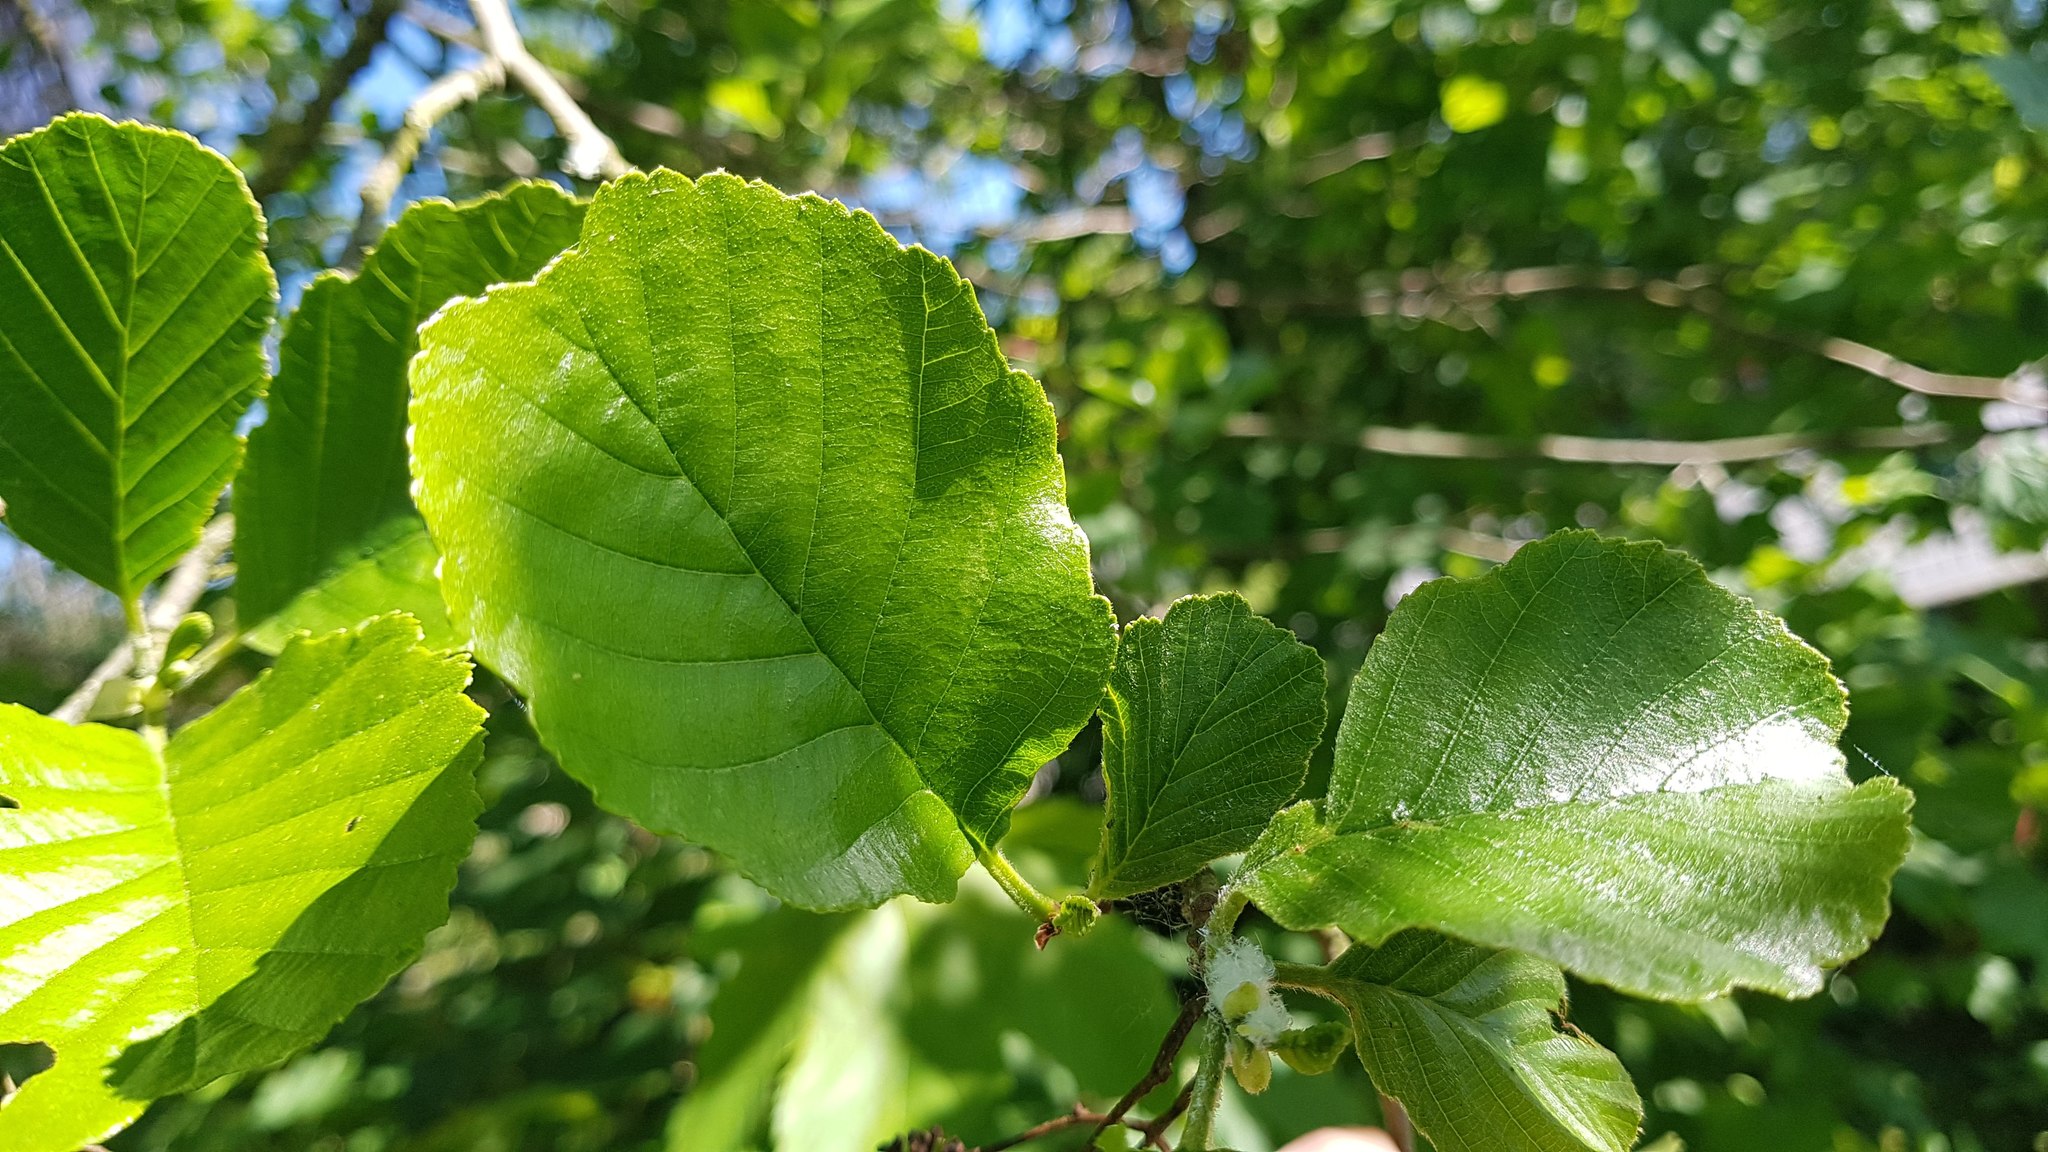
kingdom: Plantae
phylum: Tracheophyta
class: Magnoliopsida
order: Fagales
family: Betulaceae
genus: Alnus
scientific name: Alnus glutinosa
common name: Black alder
